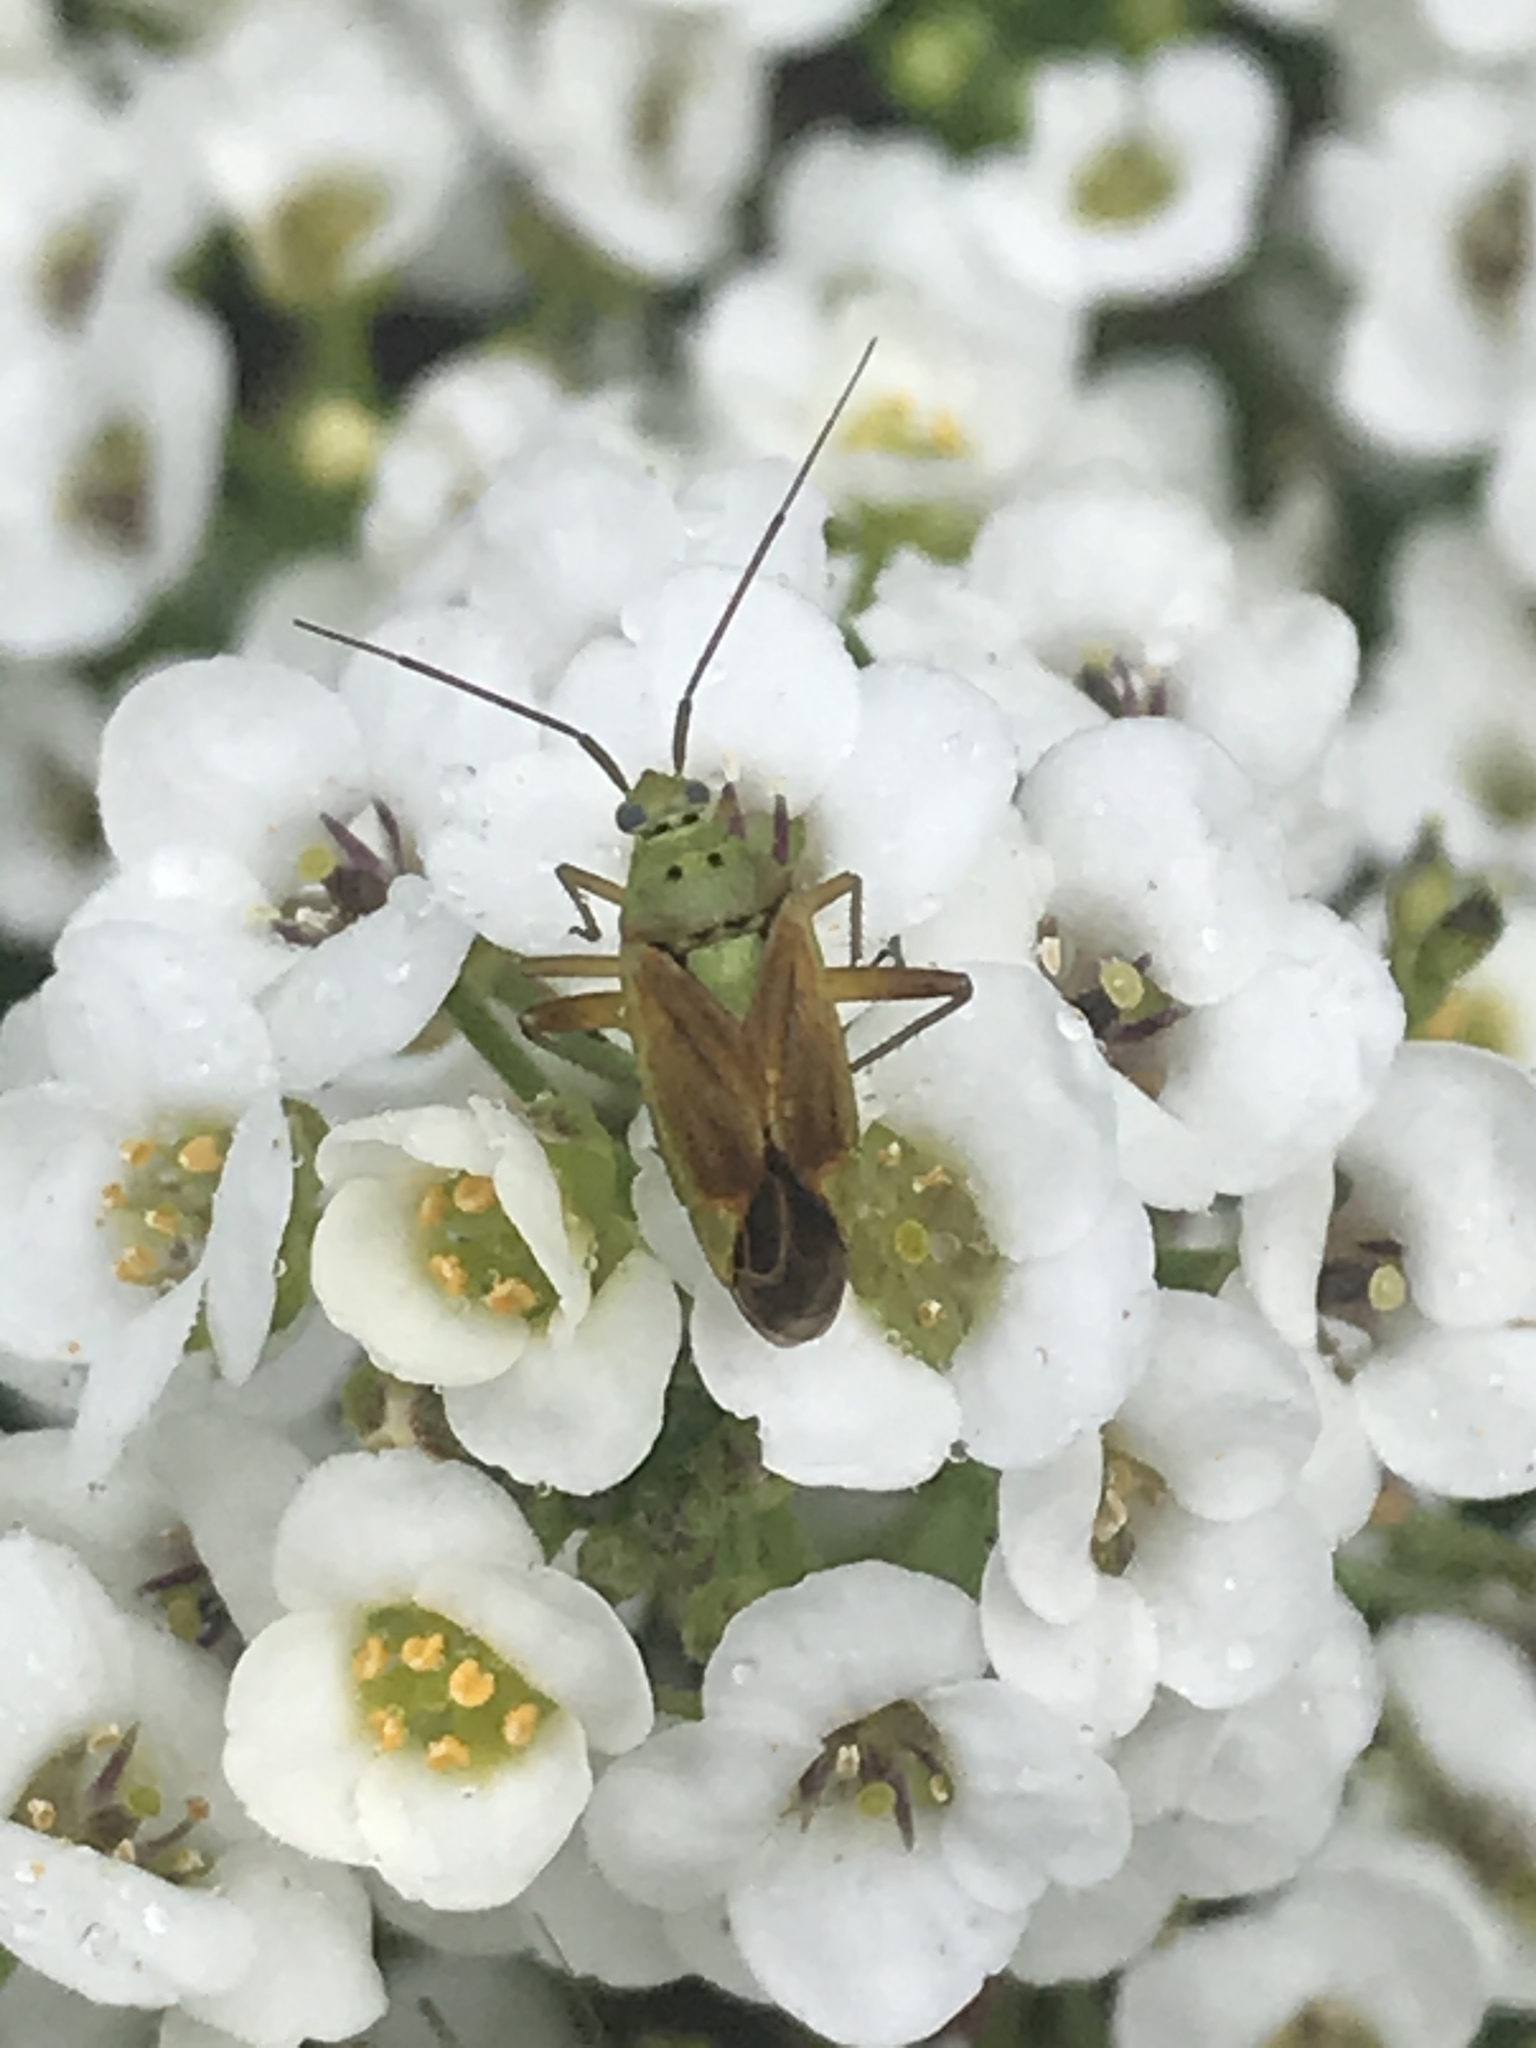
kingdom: Animalia
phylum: Arthropoda
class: Insecta
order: Hemiptera
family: Miridae
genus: Closterotomus
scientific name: Closterotomus norvegicus
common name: Plant bug
